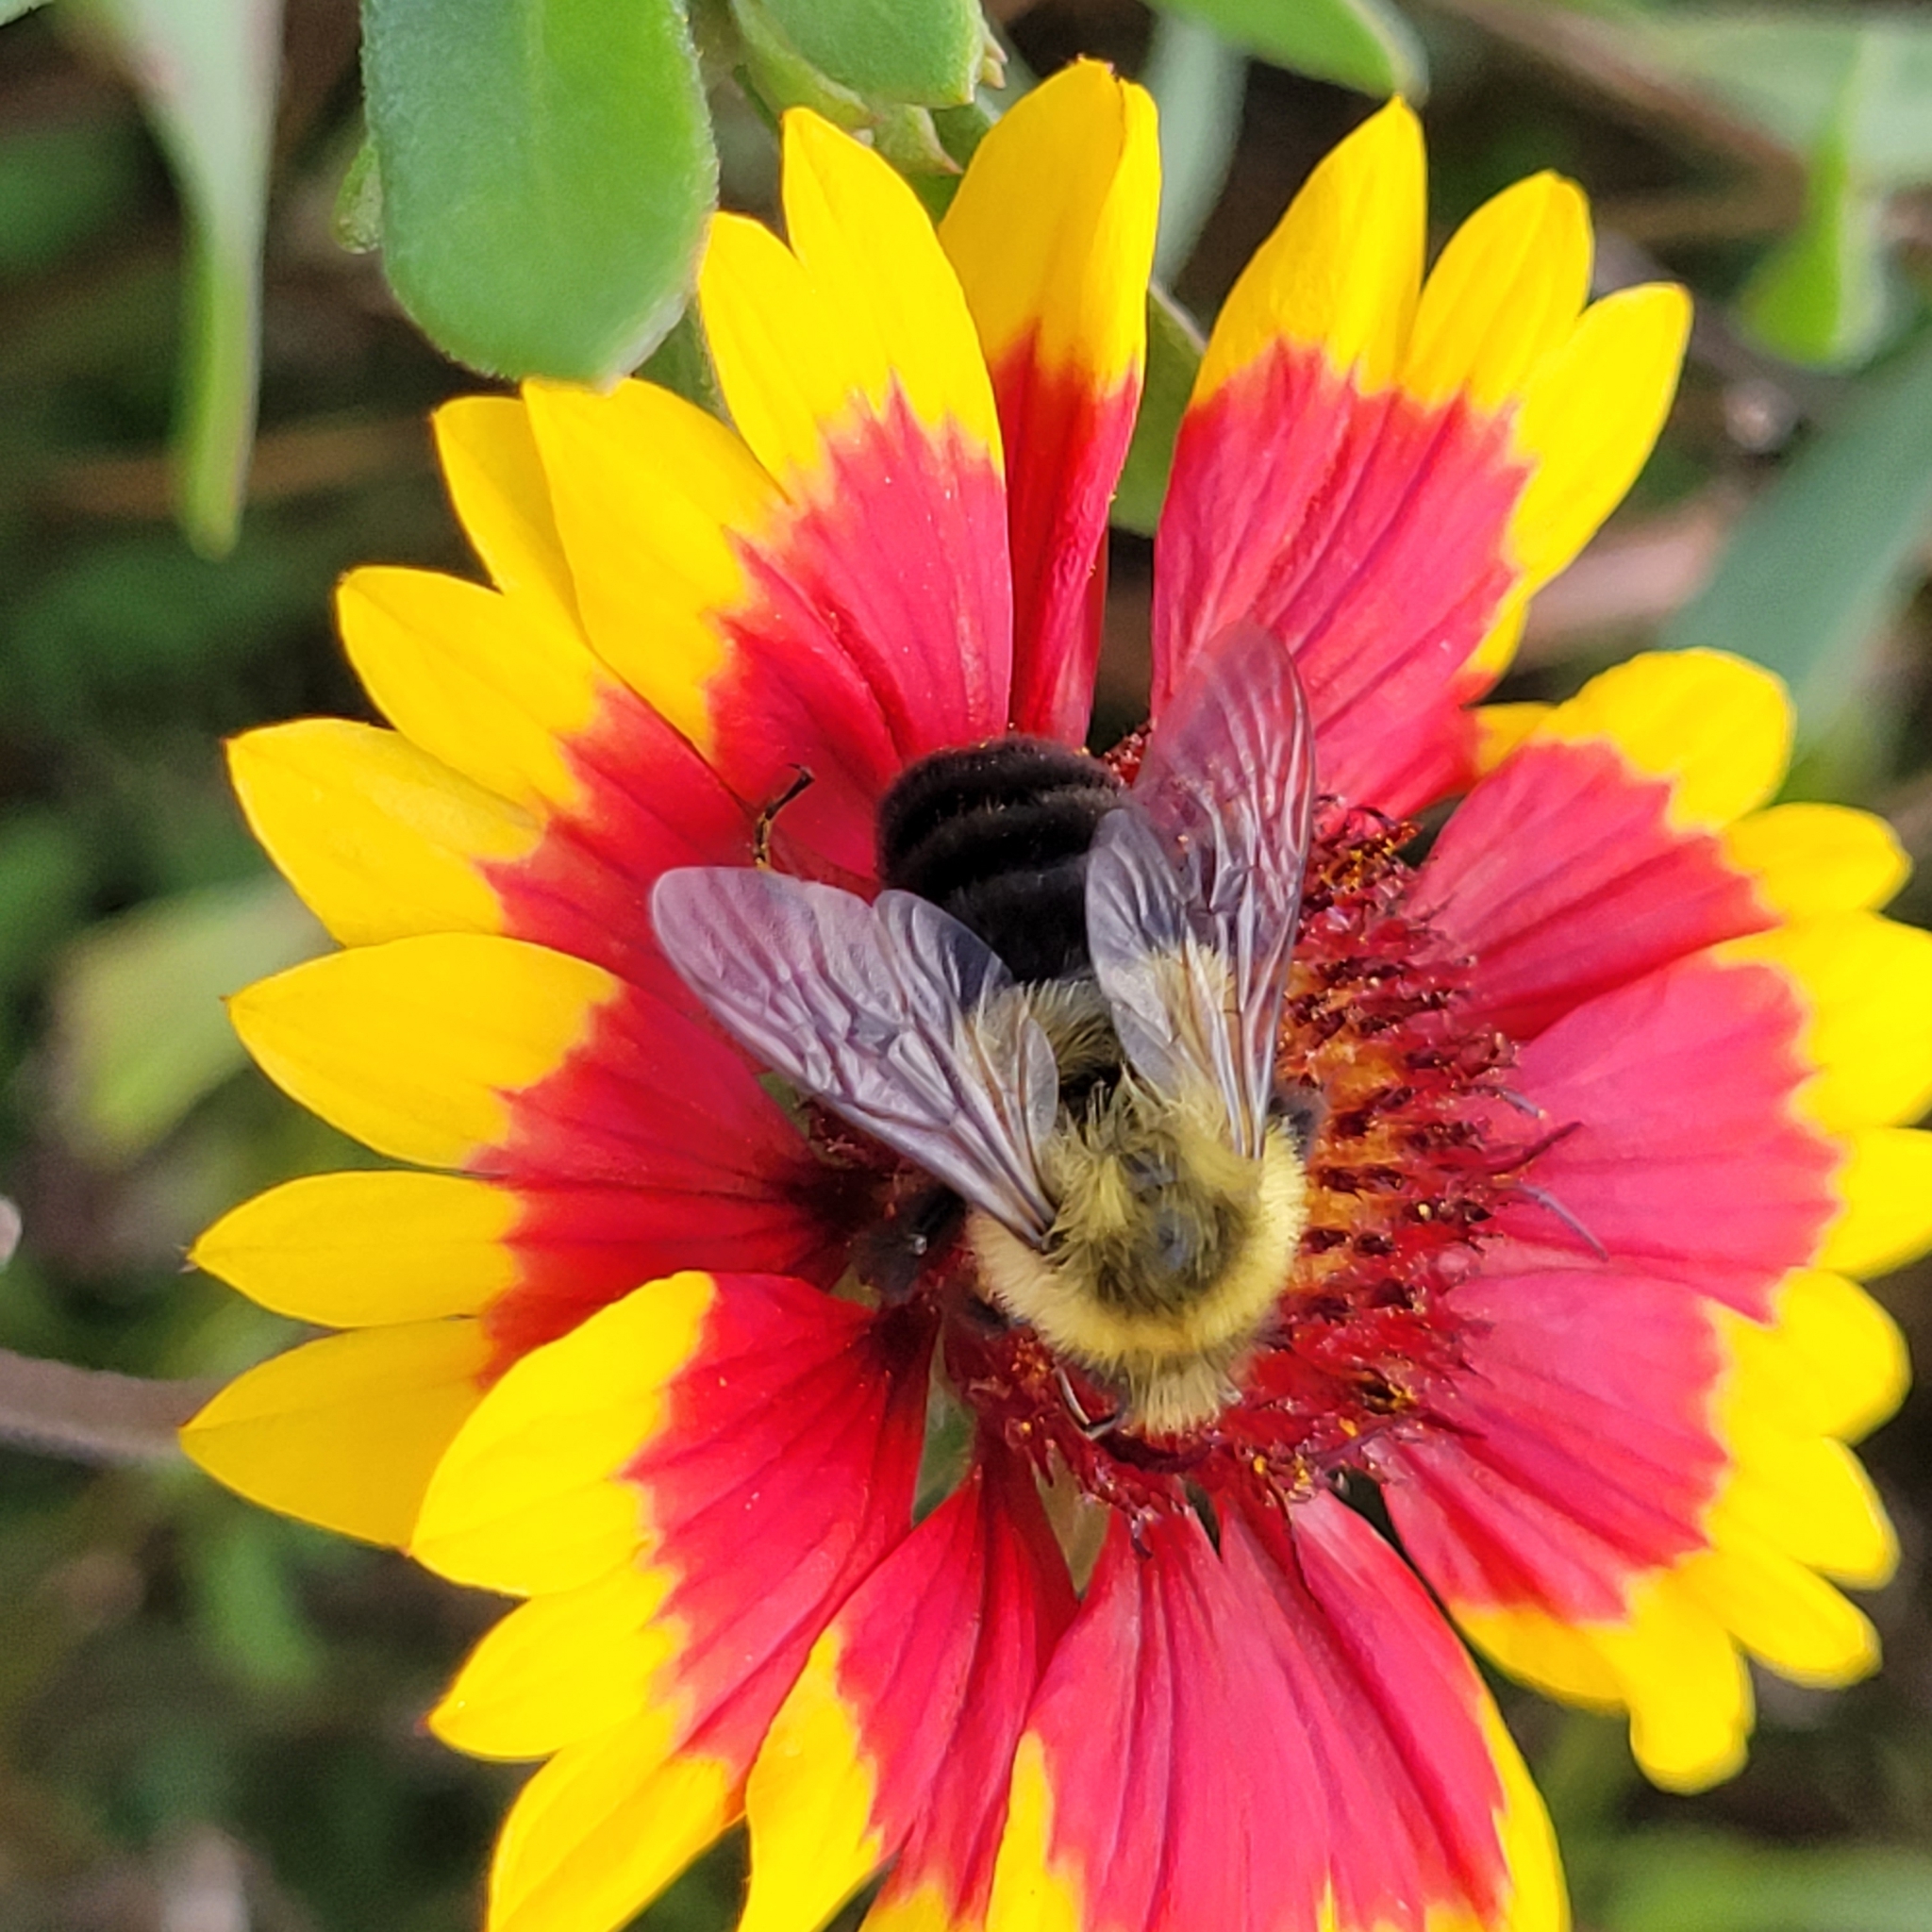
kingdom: Animalia
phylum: Arthropoda
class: Insecta
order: Hymenoptera
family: Apidae
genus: Bombus
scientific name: Bombus impatiens
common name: Common eastern bumble bee
